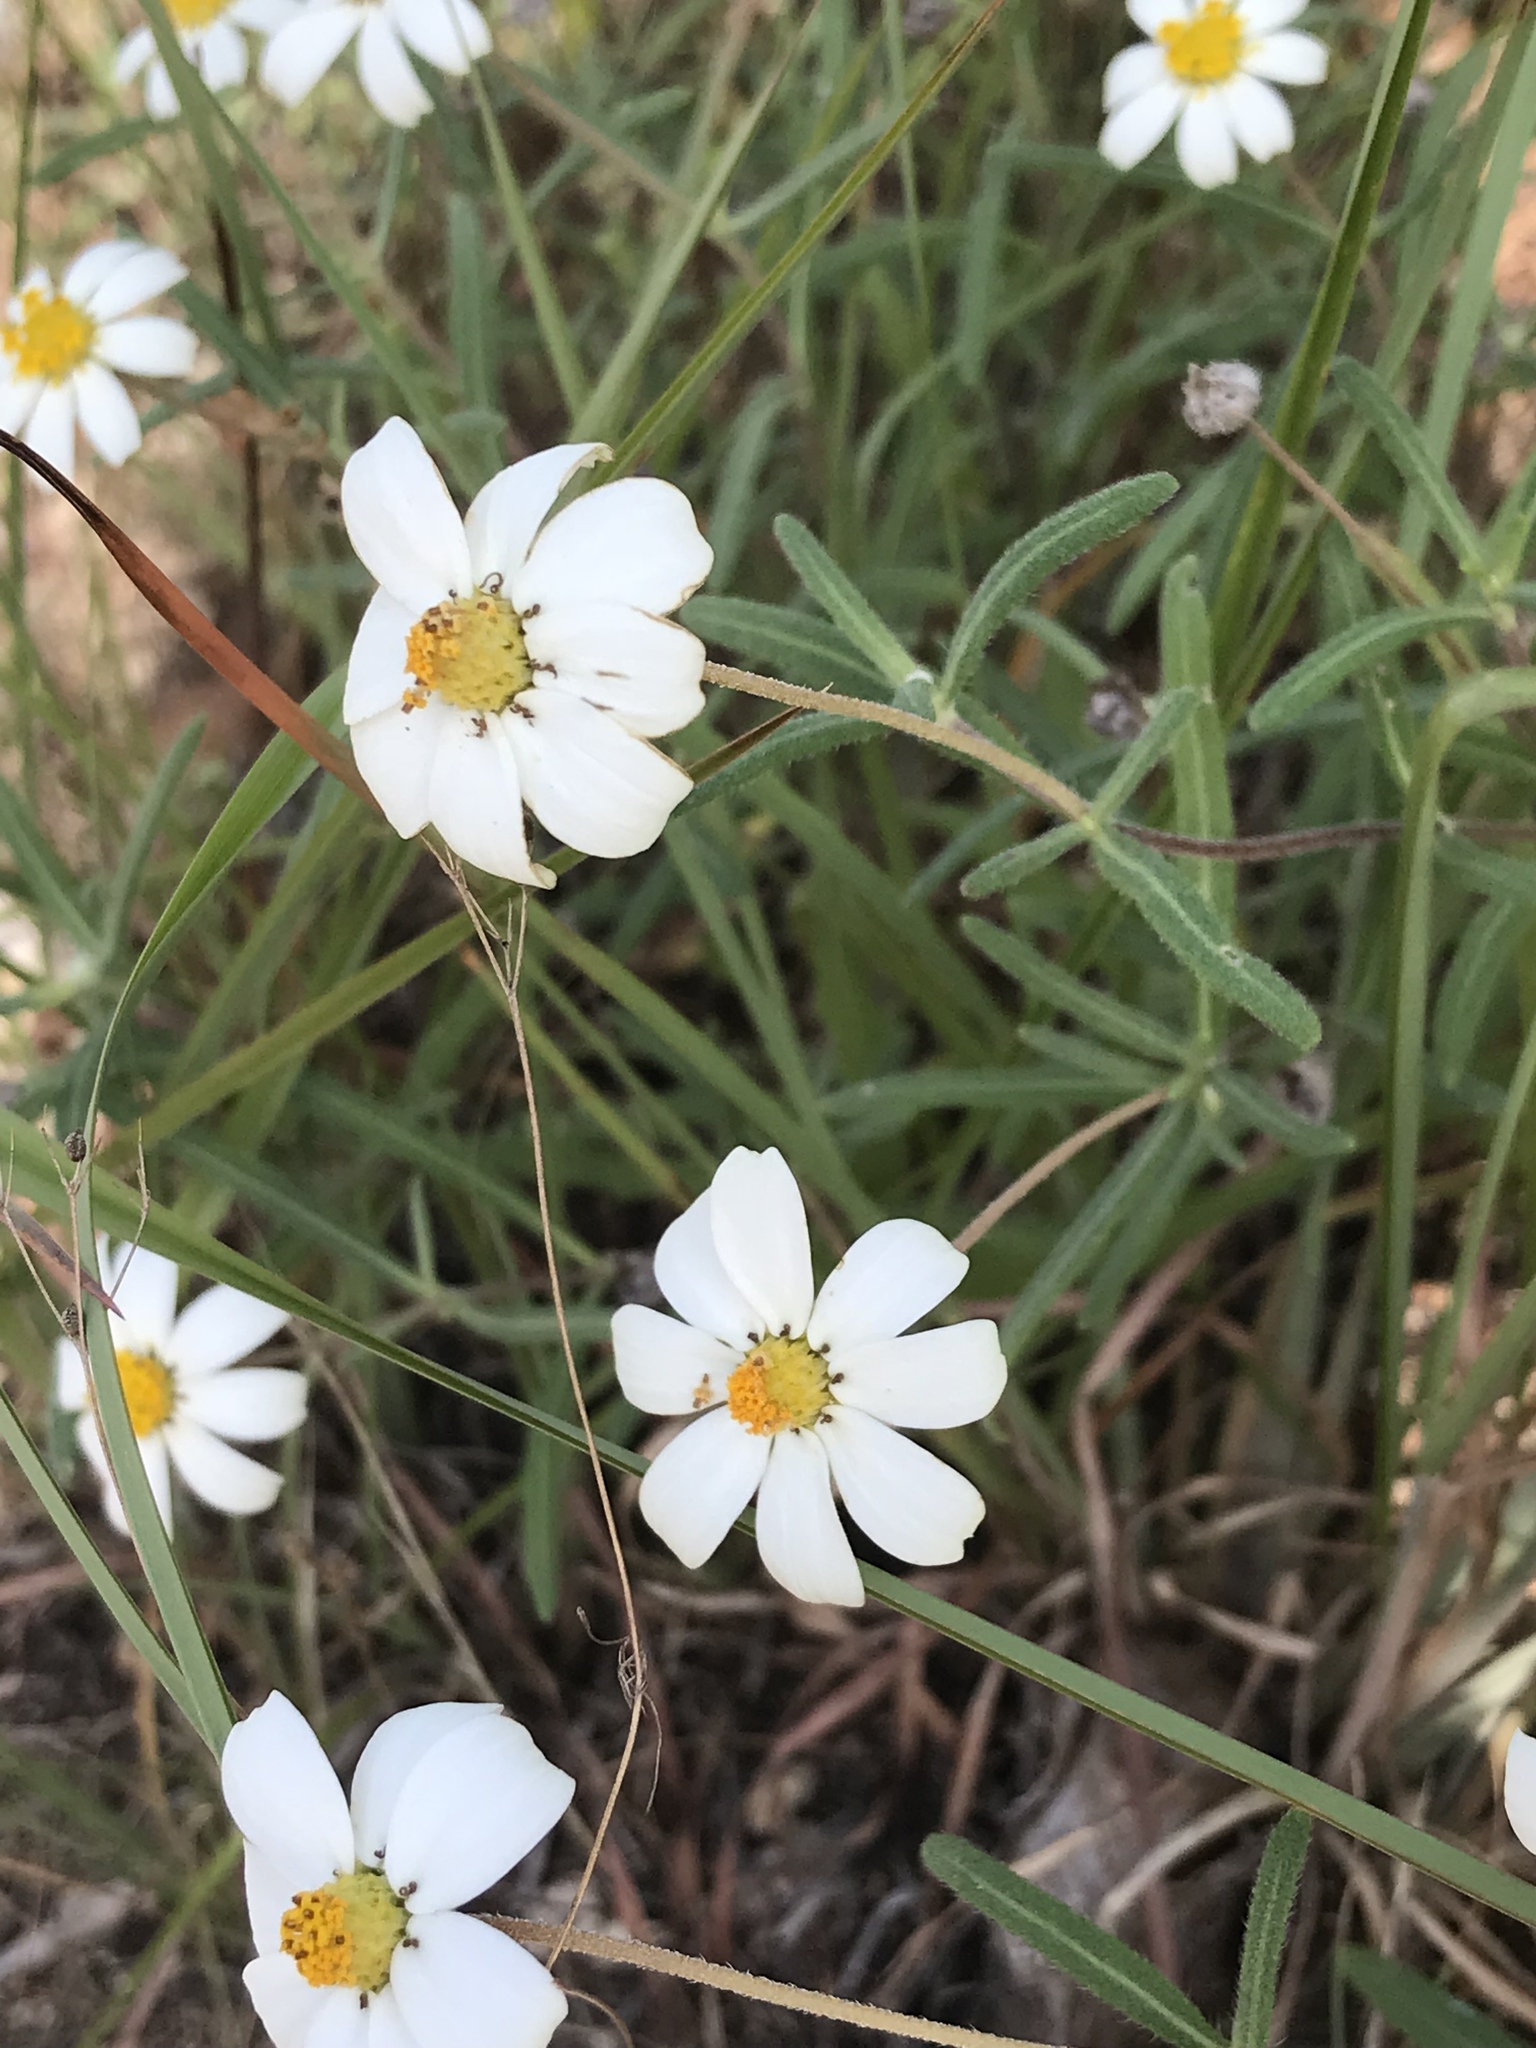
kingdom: Plantae
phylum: Tracheophyta
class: Magnoliopsida
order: Asterales
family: Asteraceae
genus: Melampodium
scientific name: Melampodium leucanthum
